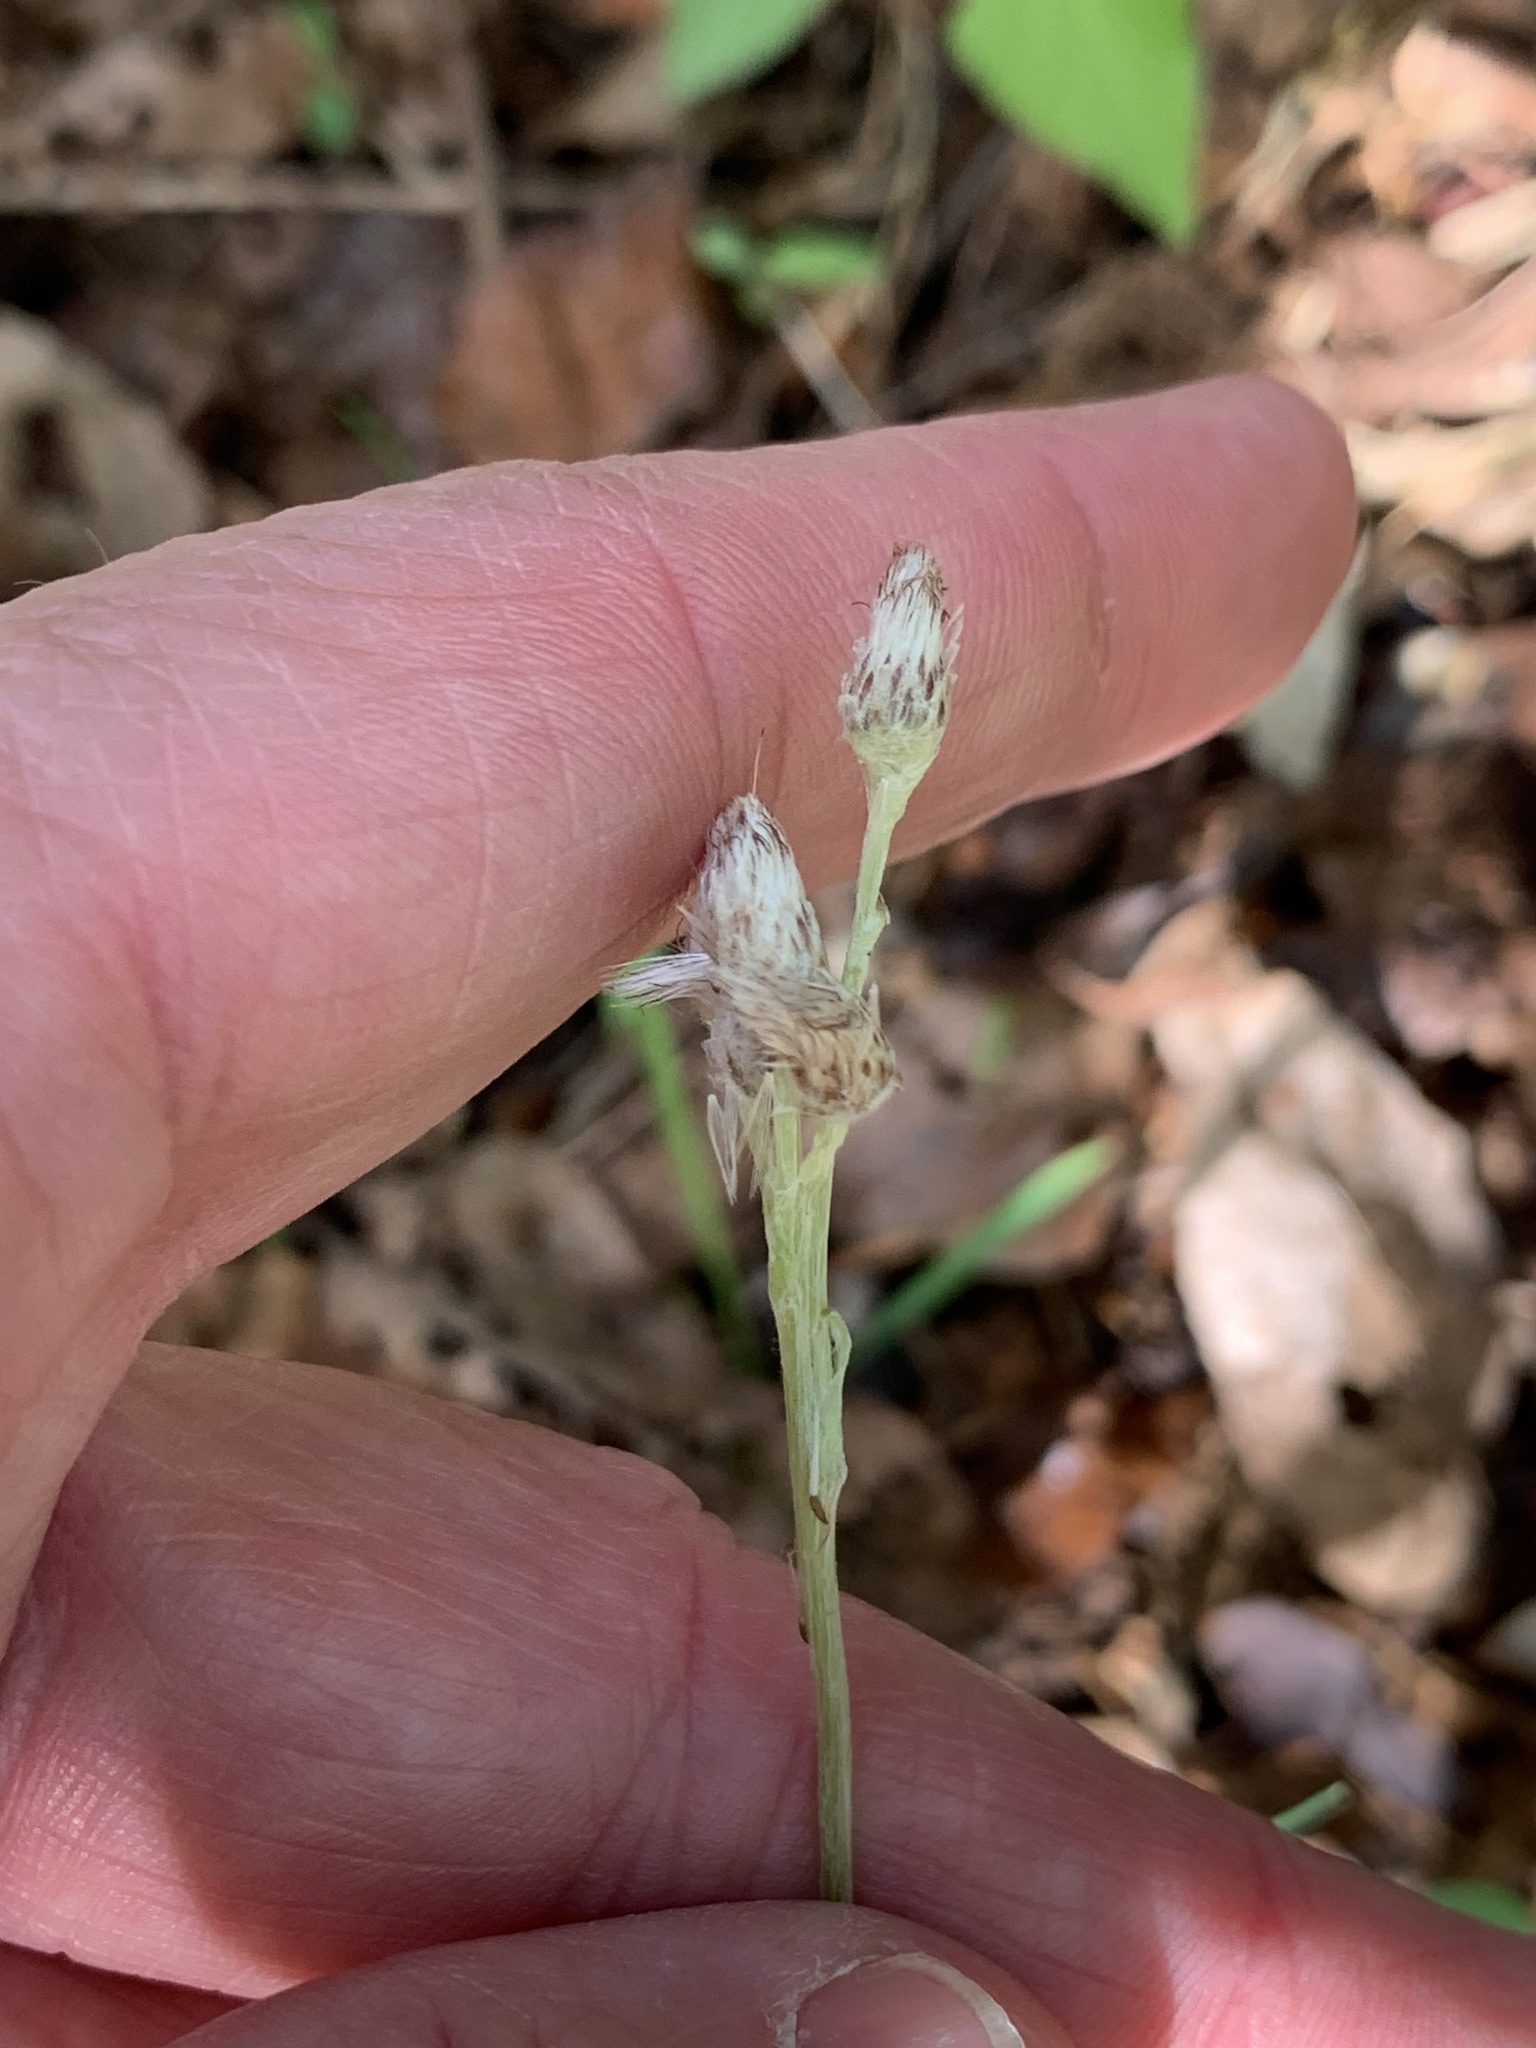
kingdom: Plantae
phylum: Tracheophyta
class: Magnoliopsida
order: Asterales
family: Asteraceae
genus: Antennaria
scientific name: Antennaria plantaginifolia
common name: Plantain-leaved pussytoes
